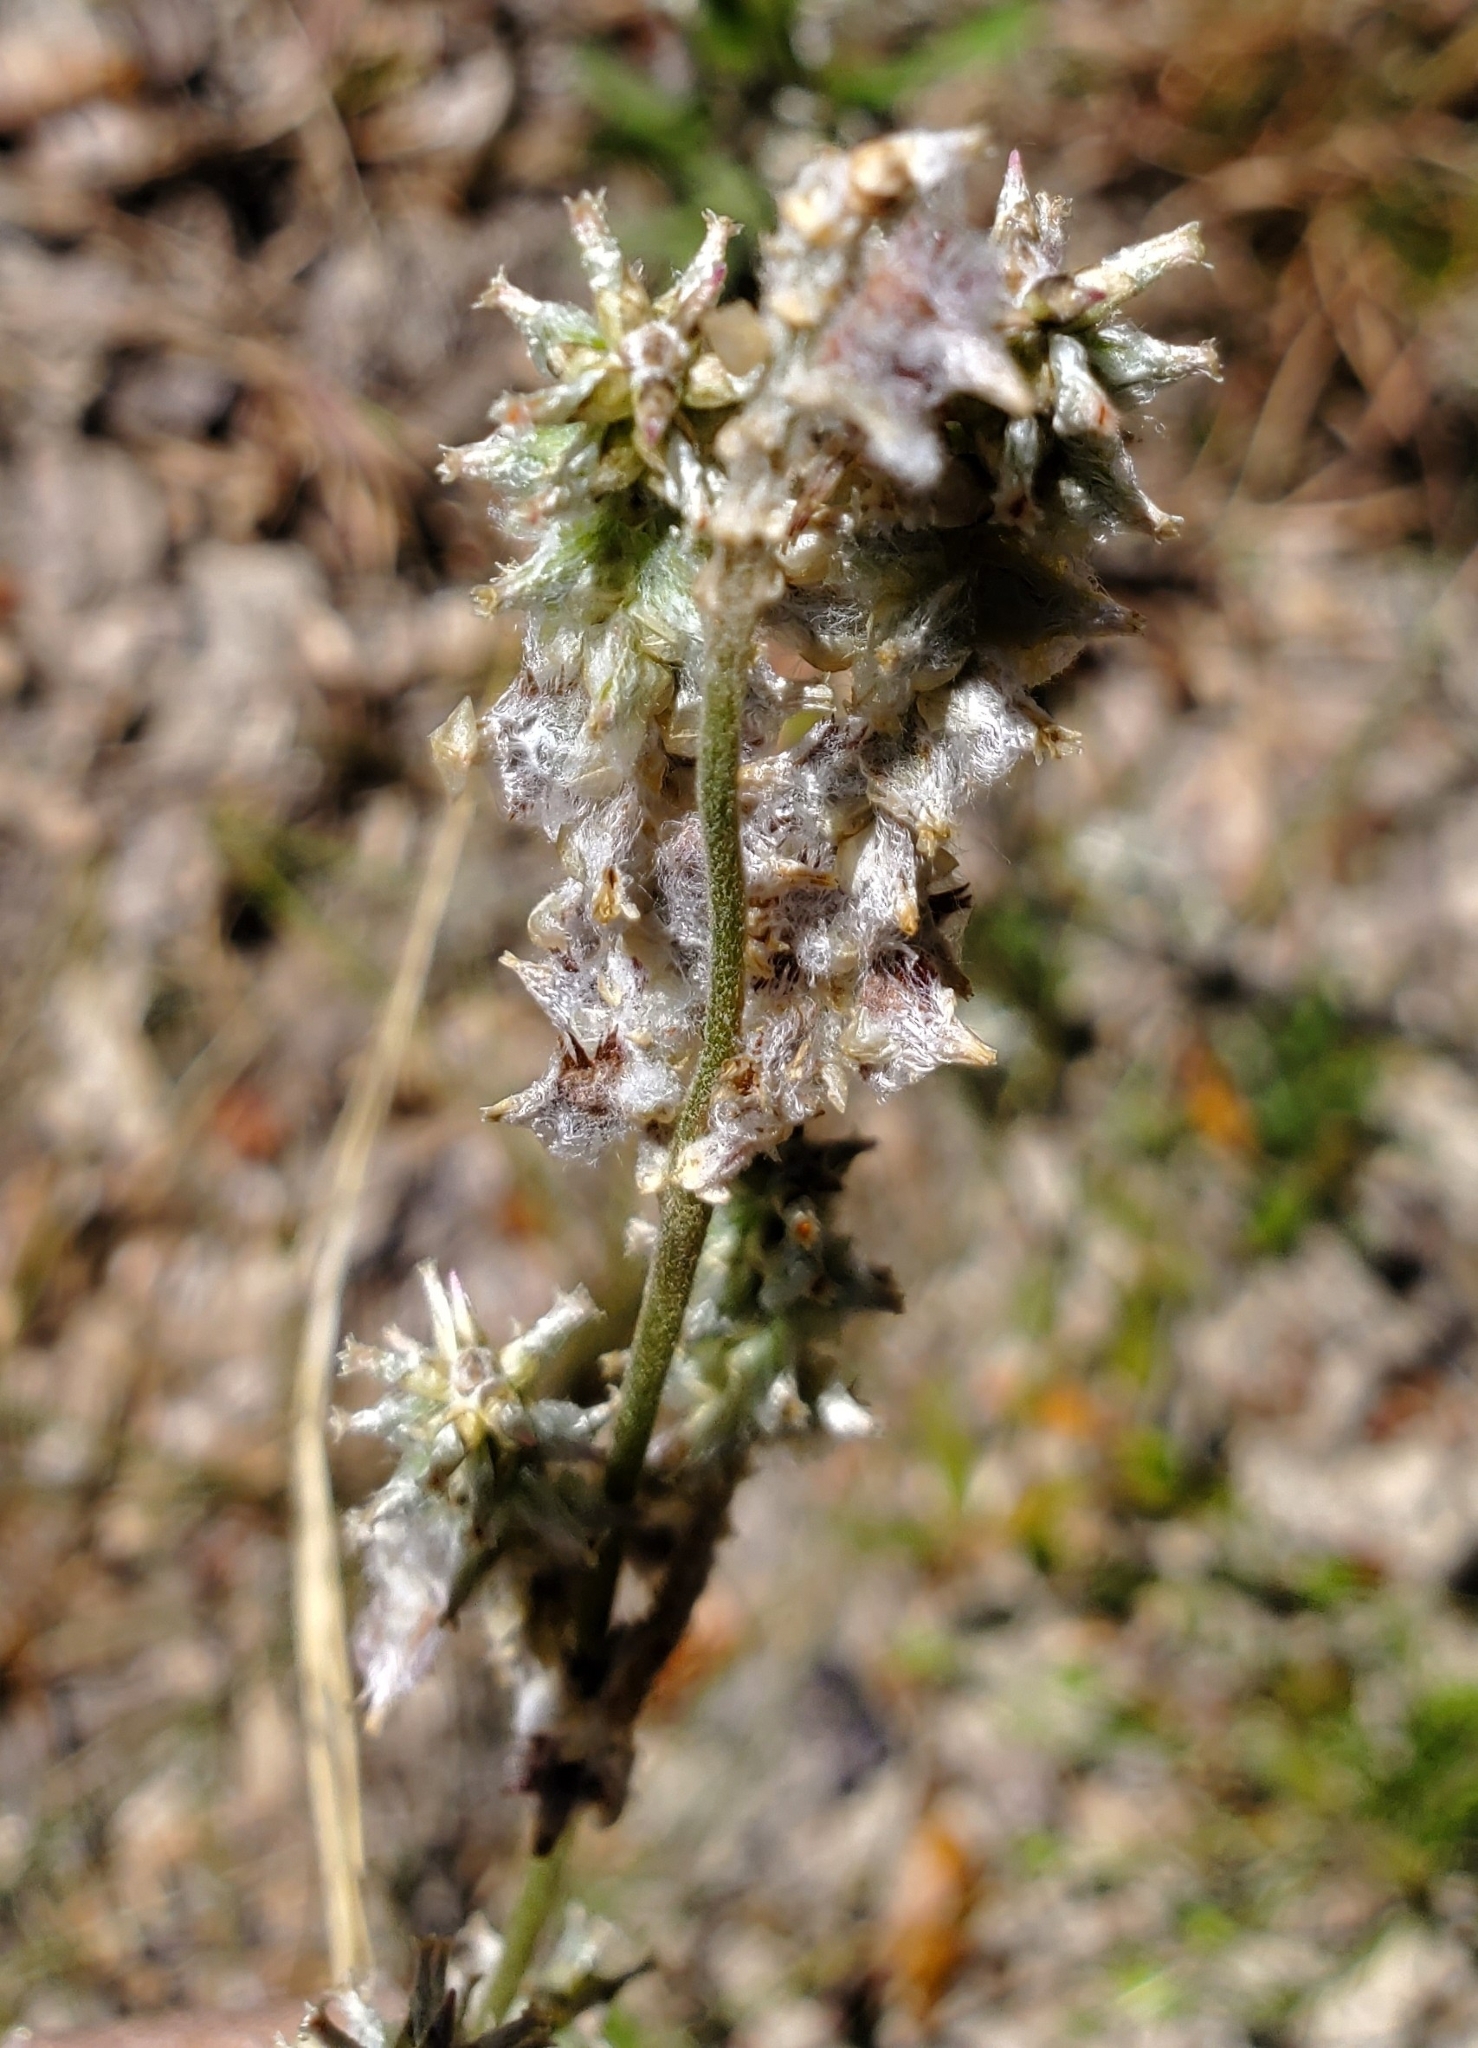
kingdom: Plantae
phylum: Tracheophyta
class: Magnoliopsida
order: Caryophyllales
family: Amaranthaceae
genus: Froelichia
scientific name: Froelichia floridana
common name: Florida snake-cotton
